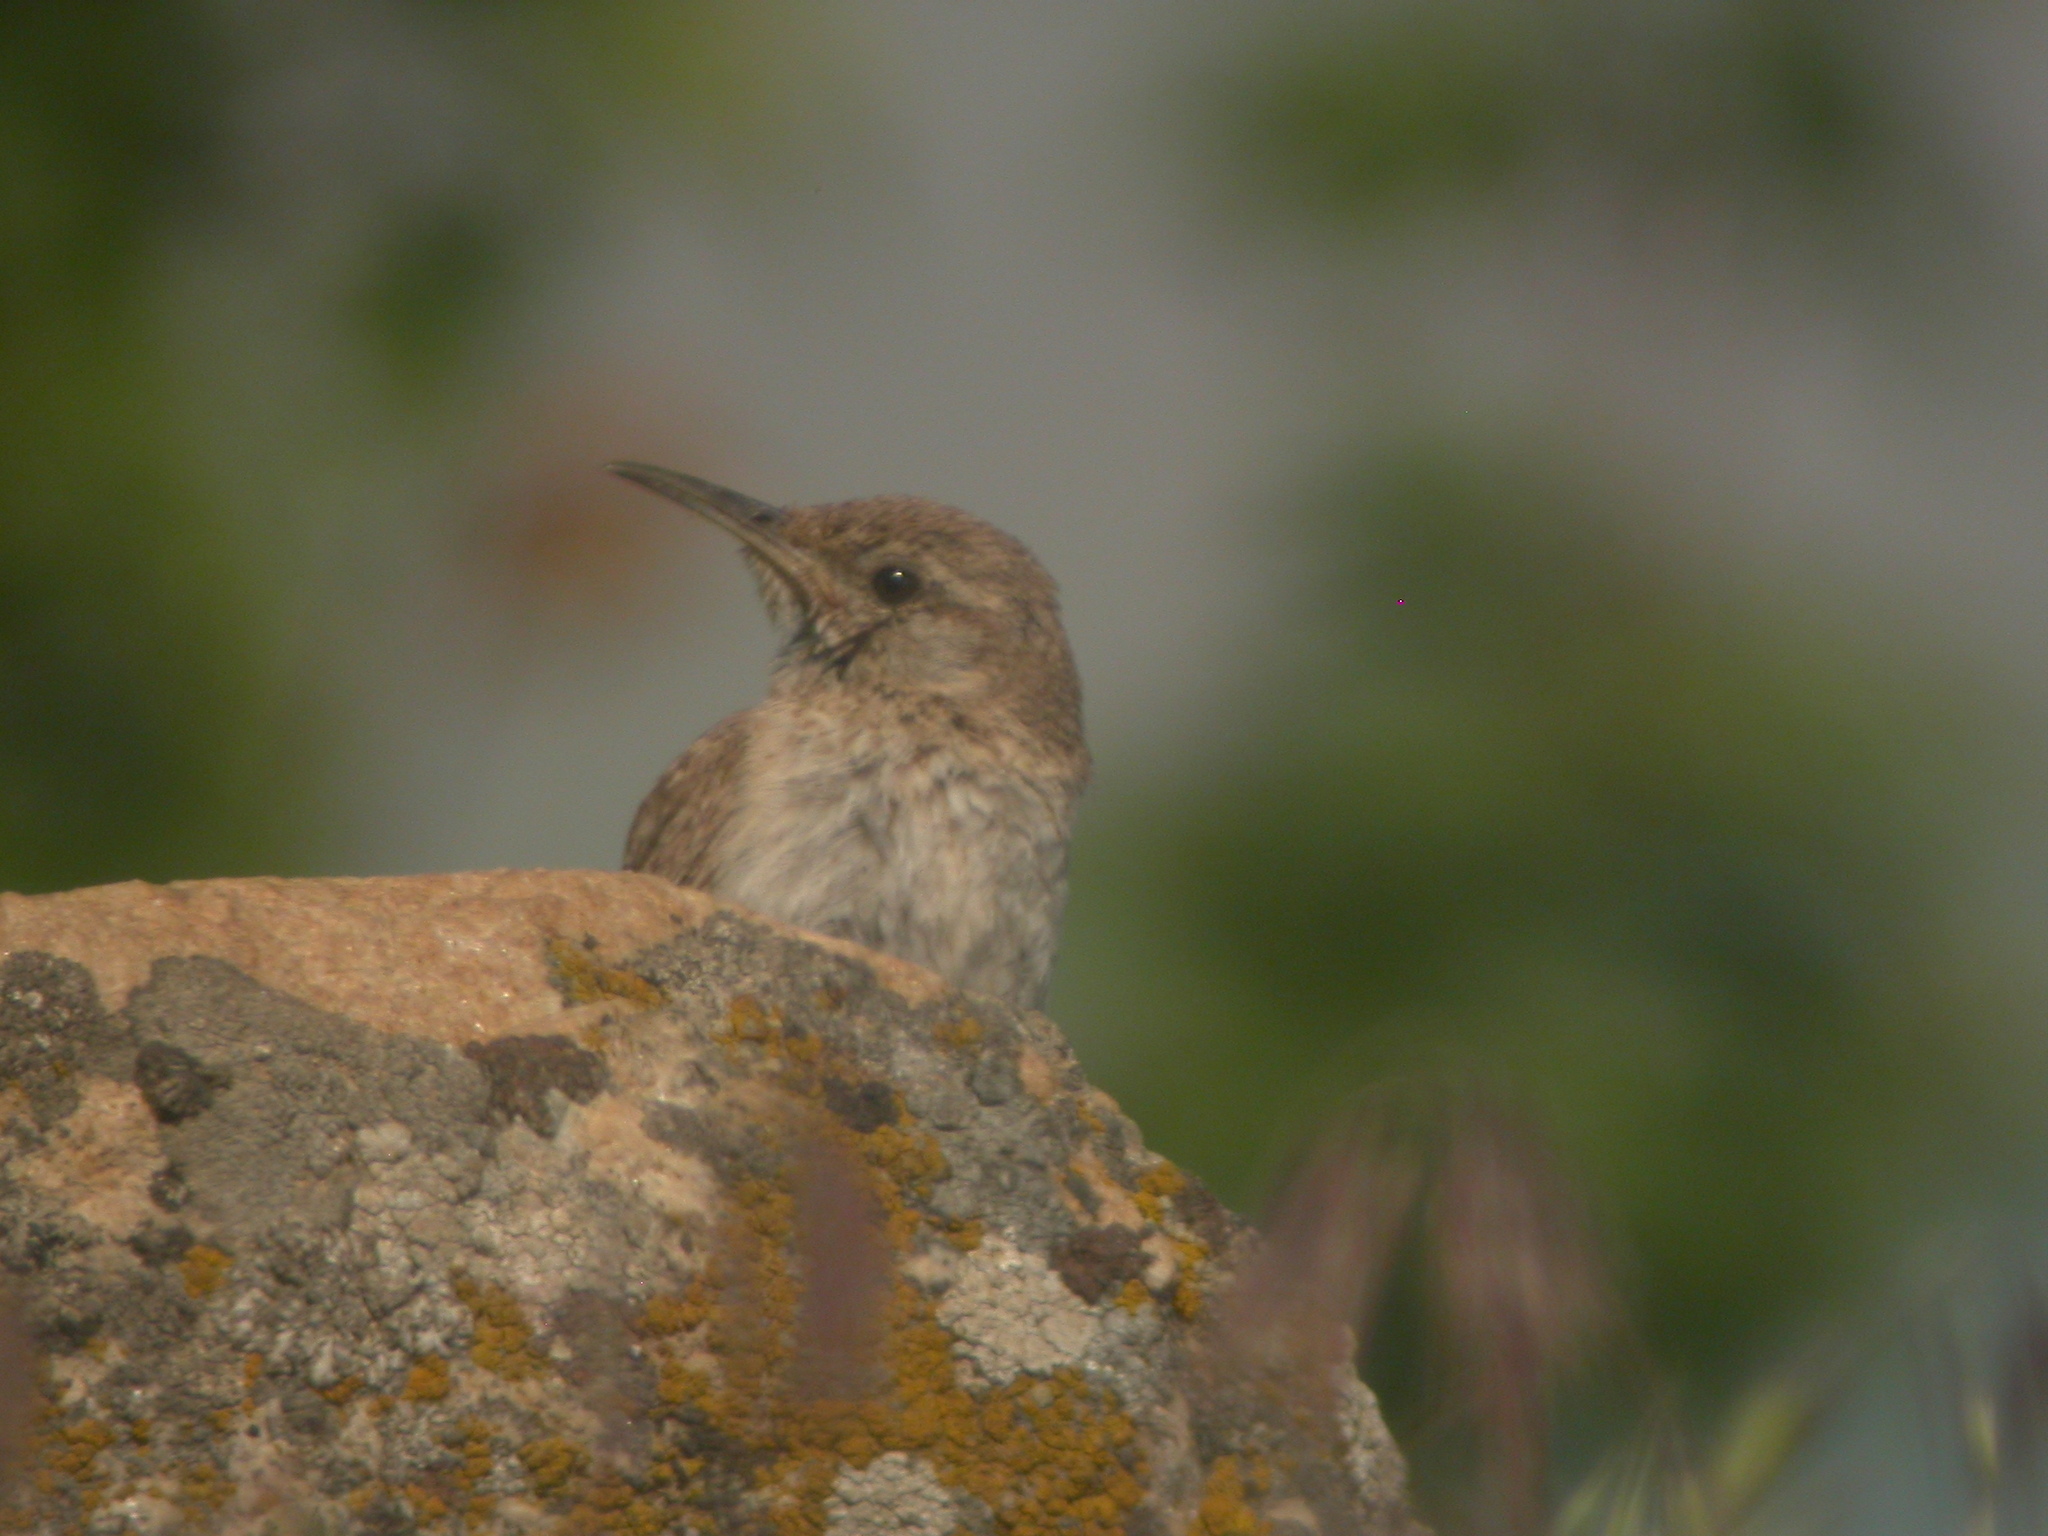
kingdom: Animalia
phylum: Chordata
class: Aves
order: Passeriformes
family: Troglodytidae
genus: Salpinctes
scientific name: Salpinctes obsoletus
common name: Rock wren
